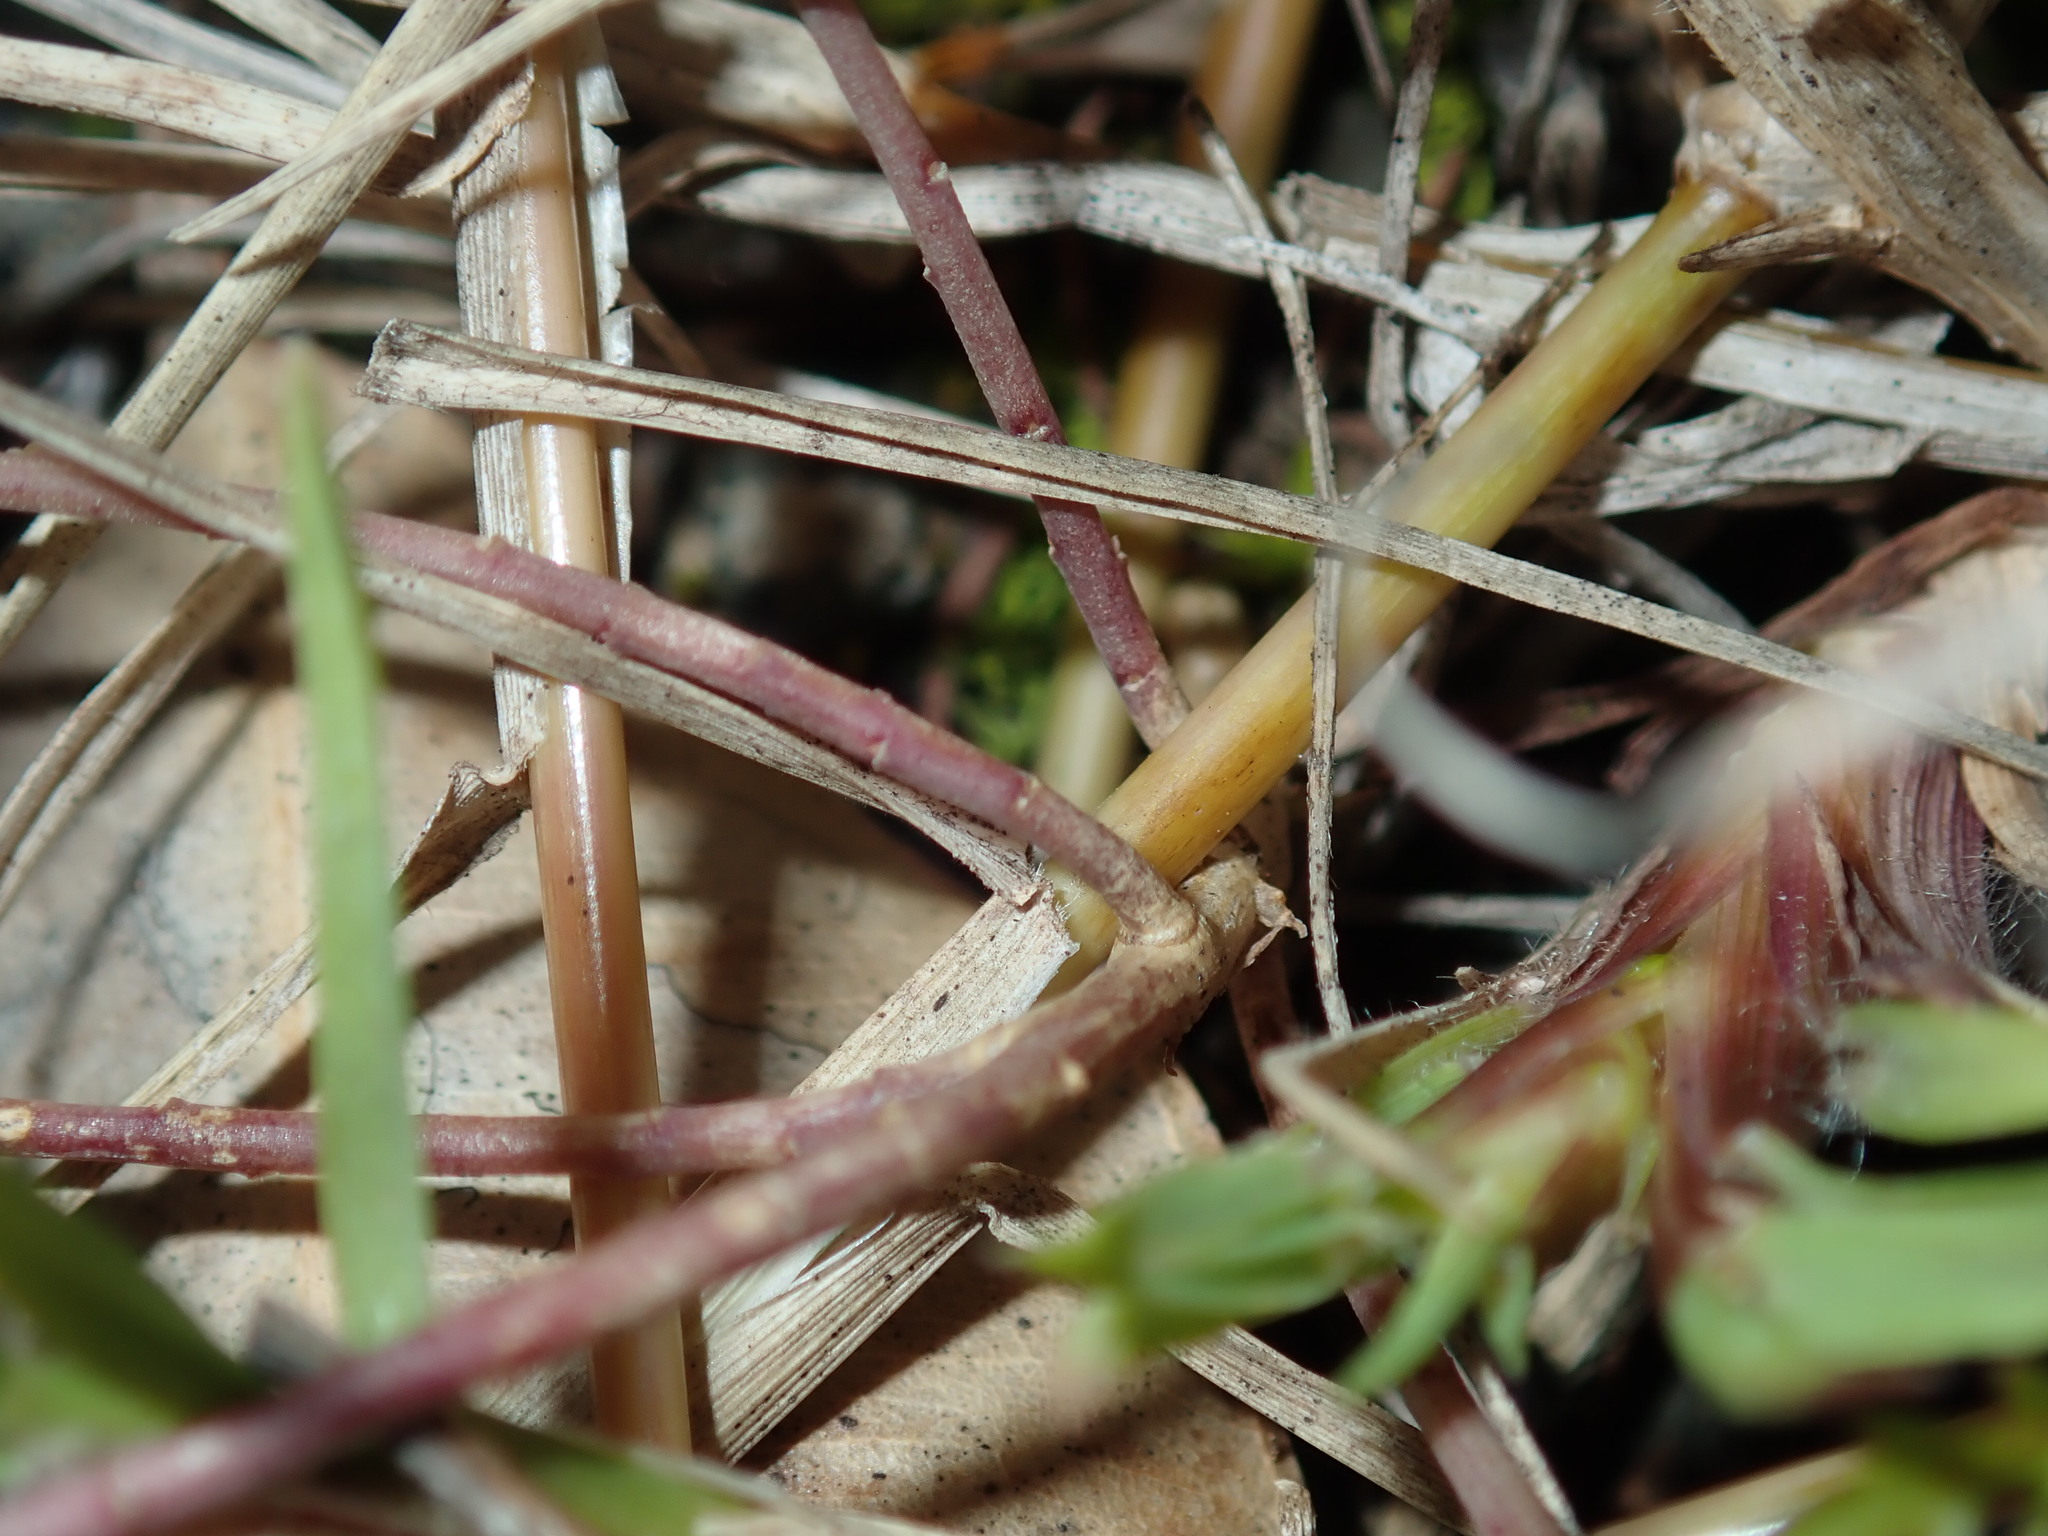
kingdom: Plantae
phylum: Tracheophyta
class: Magnoliopsida
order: Malpighiales
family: Linaceae
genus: Linum
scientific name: Linum trigynum
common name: French flax
